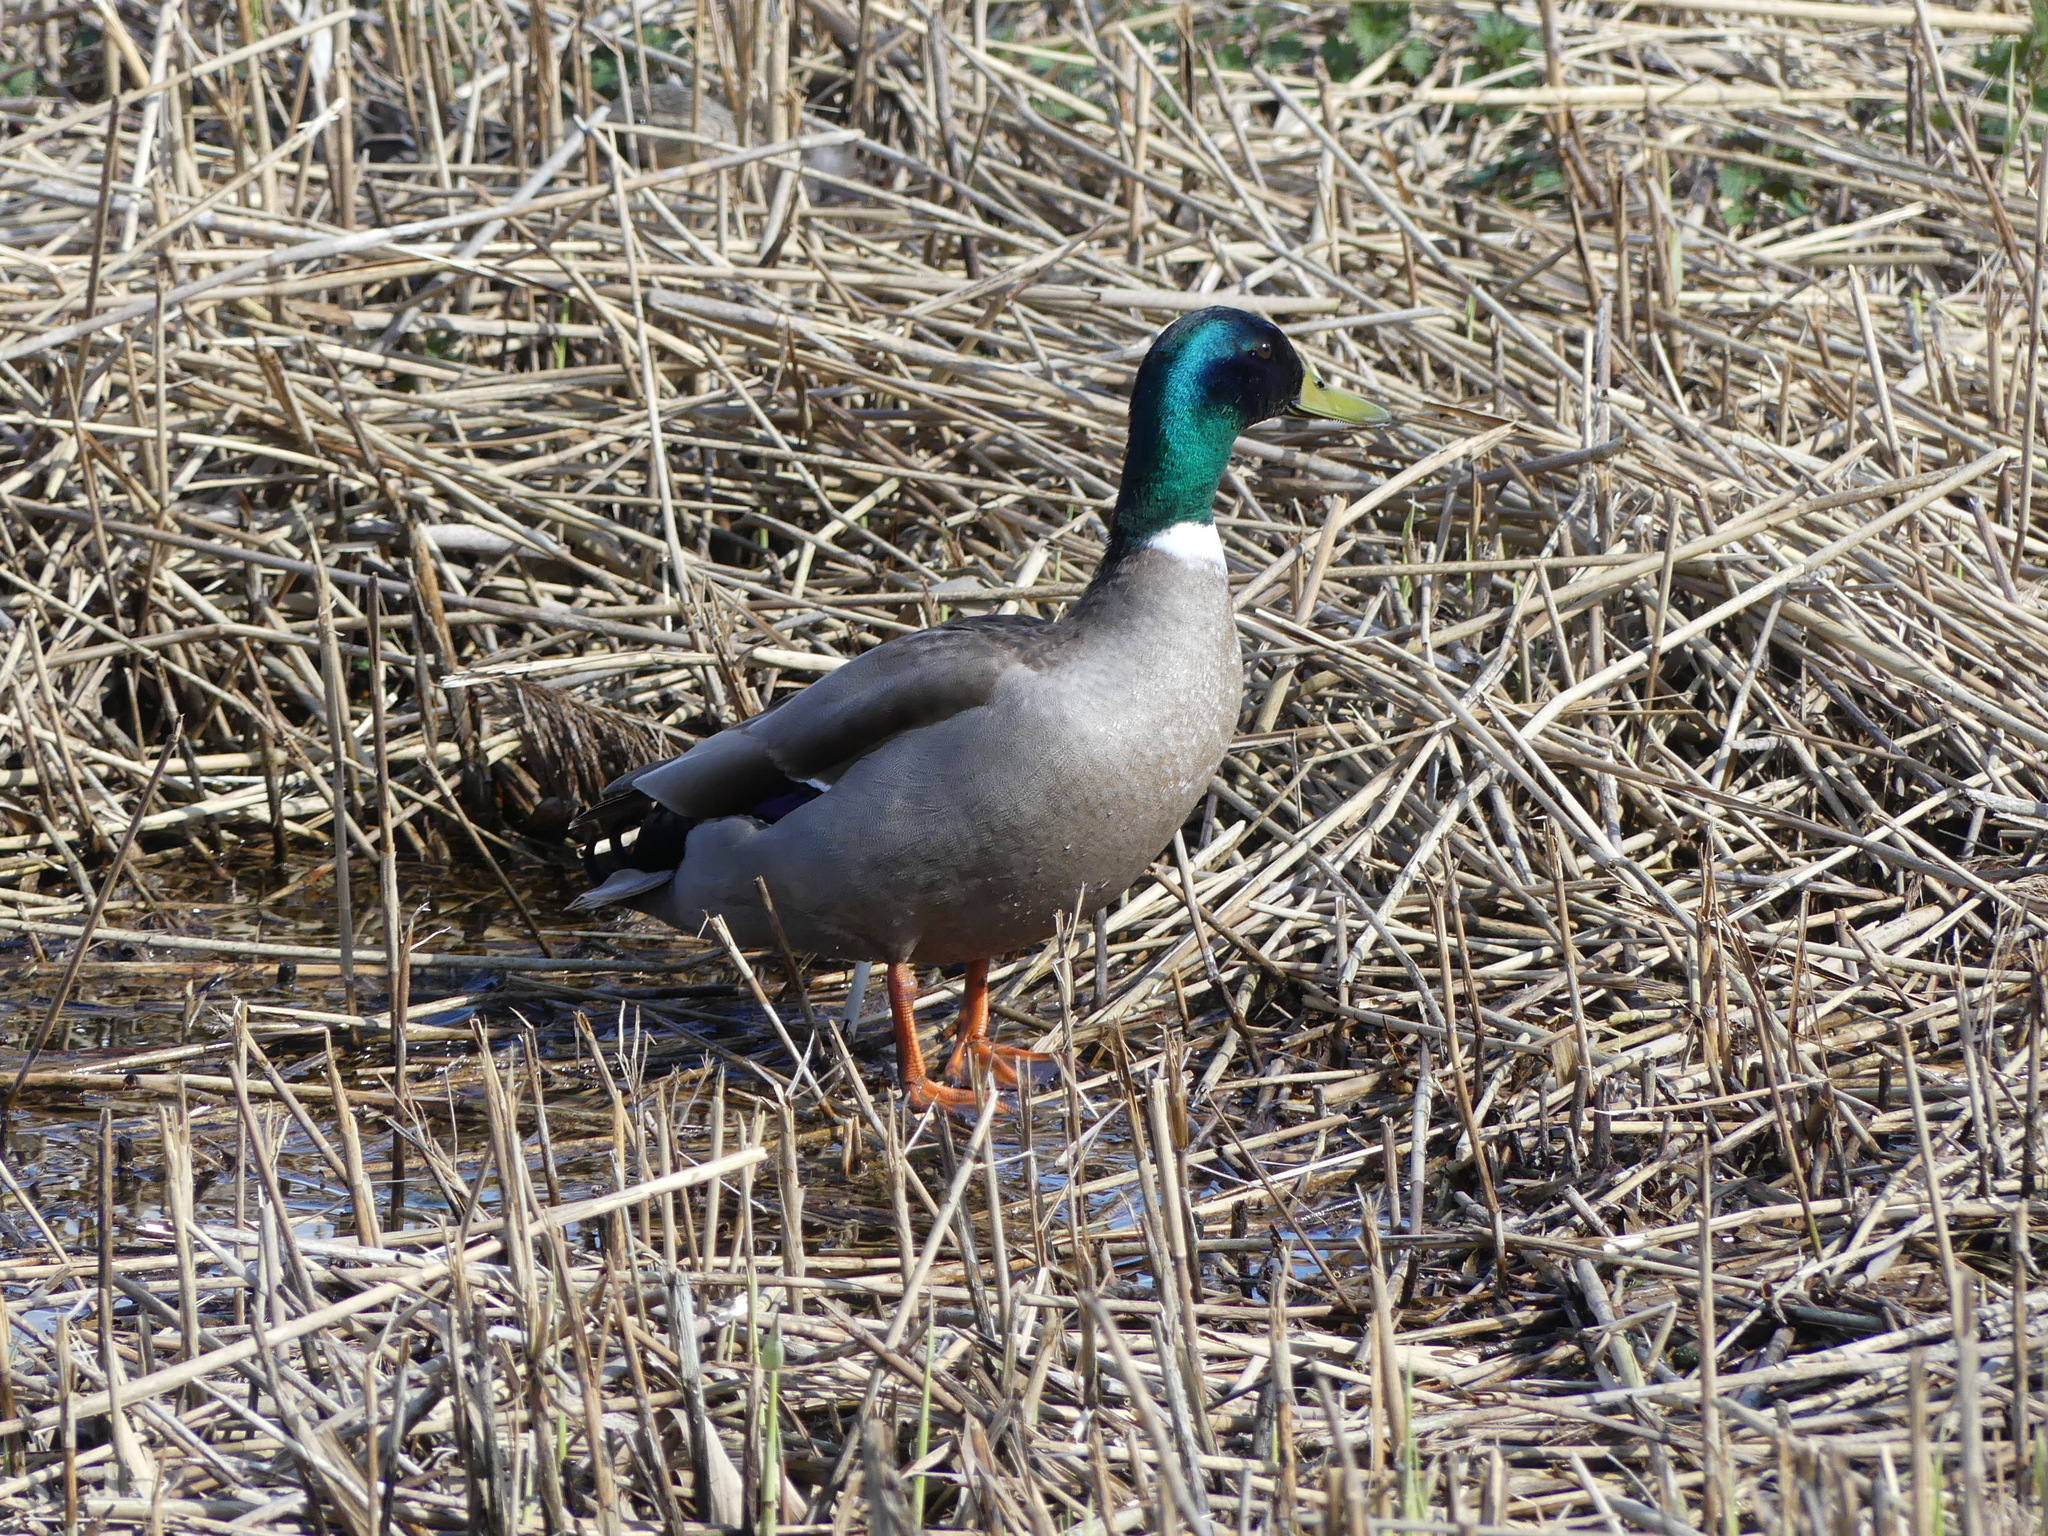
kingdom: Animalia
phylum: Chordata
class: Aves
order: Anseriformes
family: Anatidae
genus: Anas
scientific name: Anas platyrhynchos
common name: Mallard
